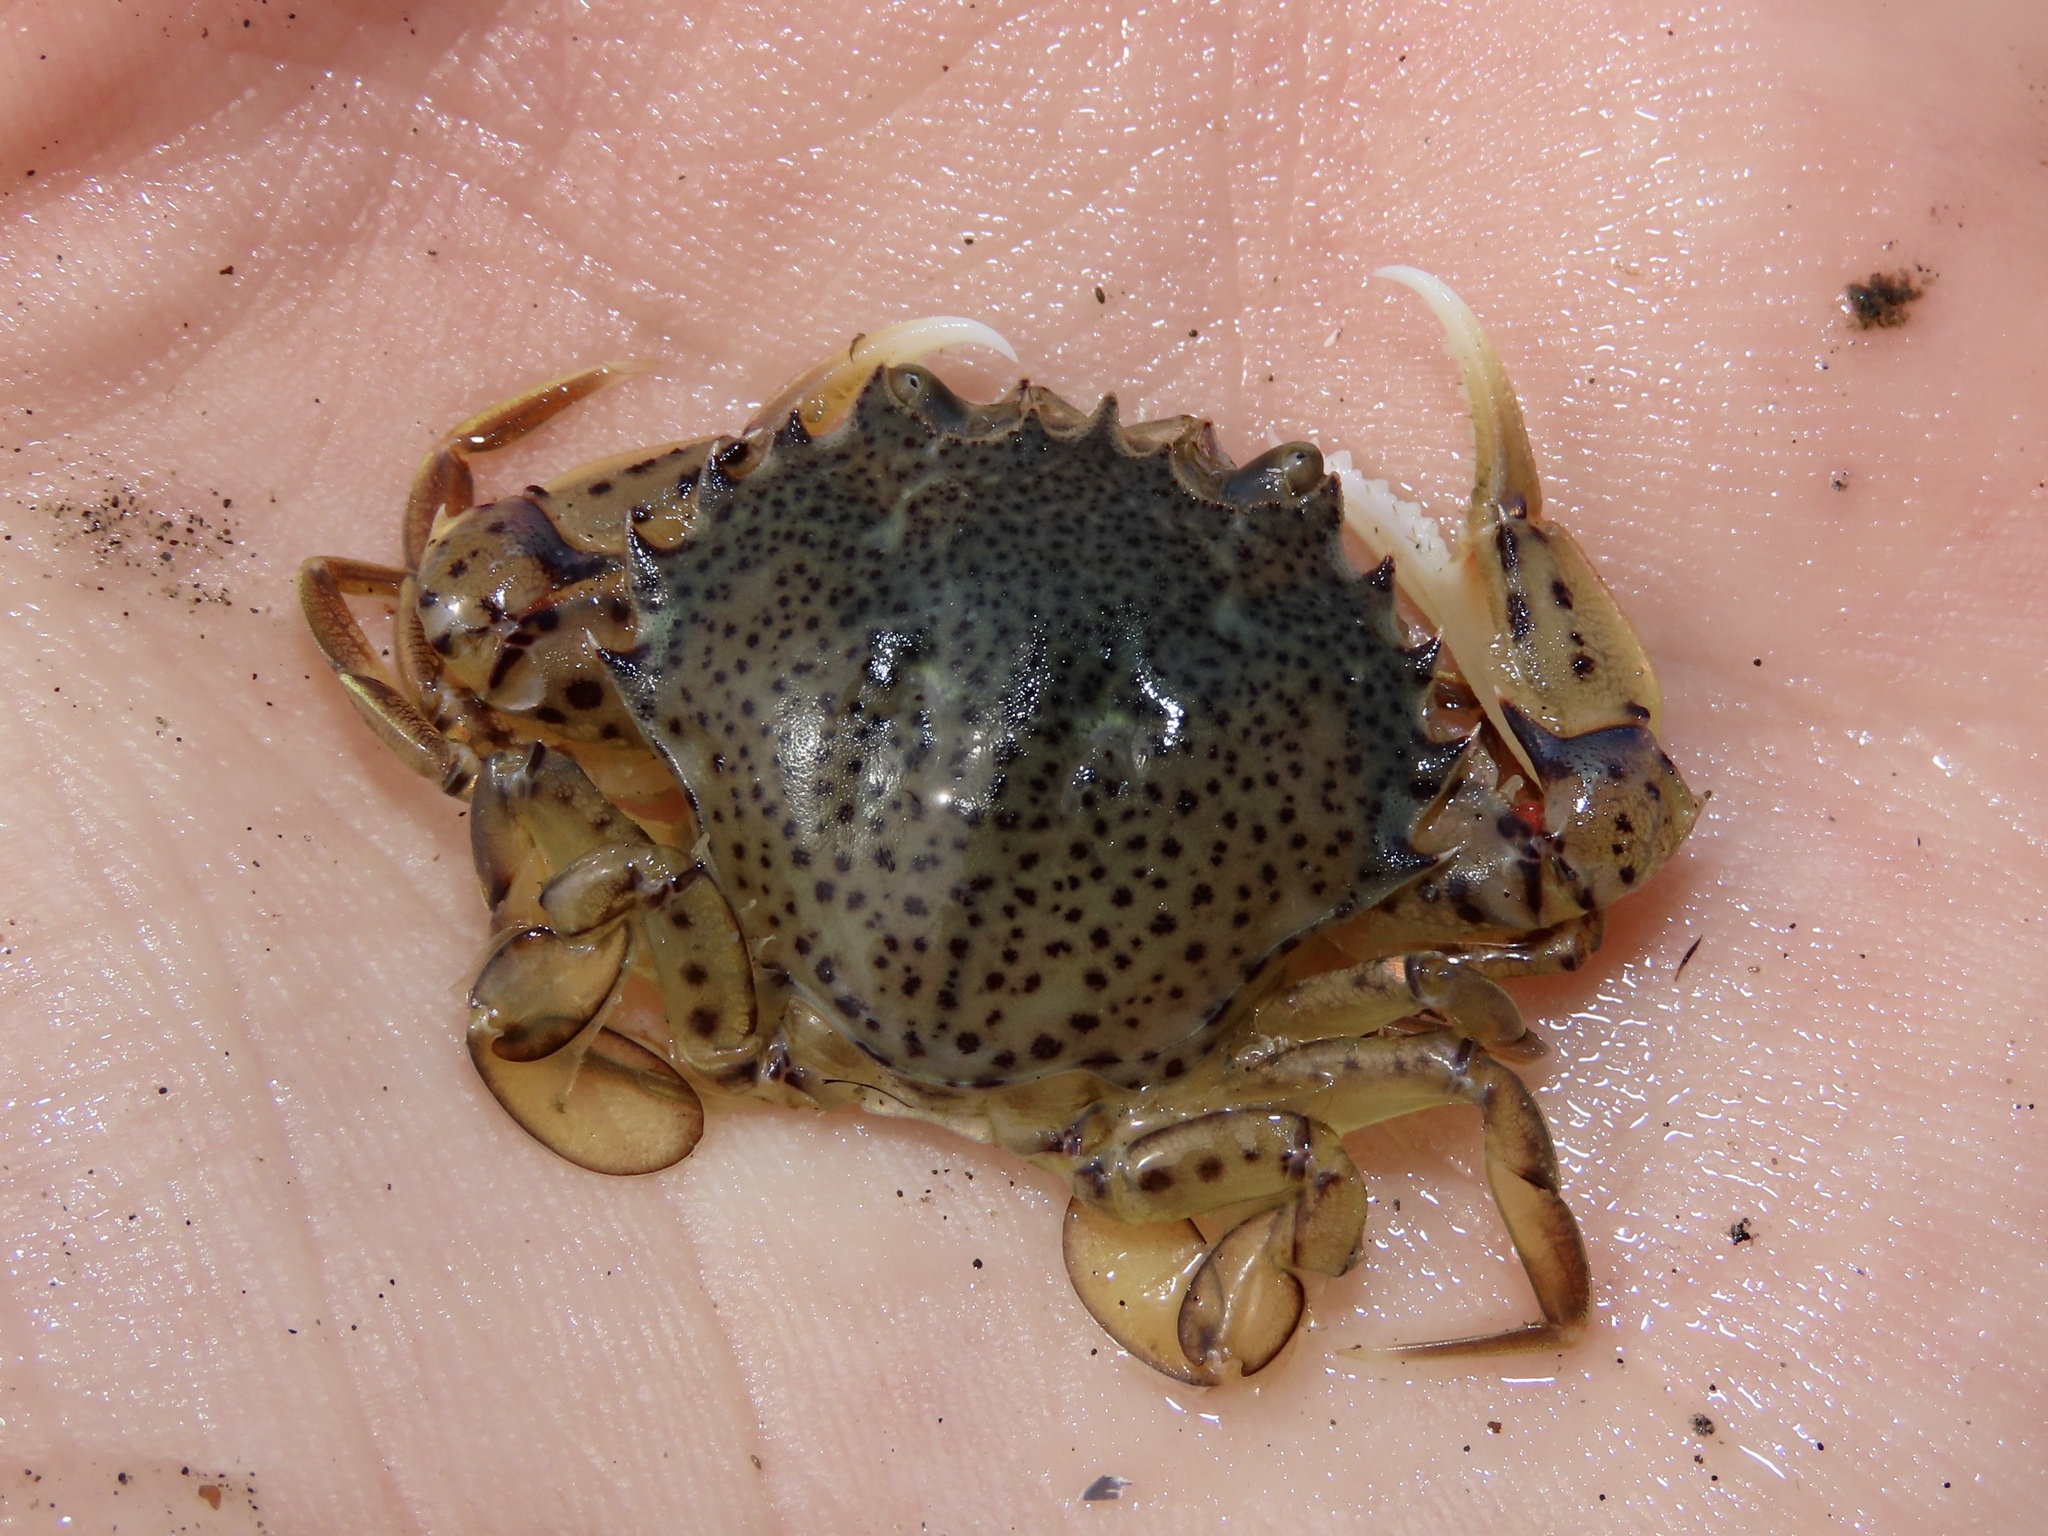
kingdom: Animalia
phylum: Arthropoda
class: Malacostraca
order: Decapoda
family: Ovalipidae
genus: Ovalipes
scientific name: Ovalipes ocellatus
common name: Lady crab
